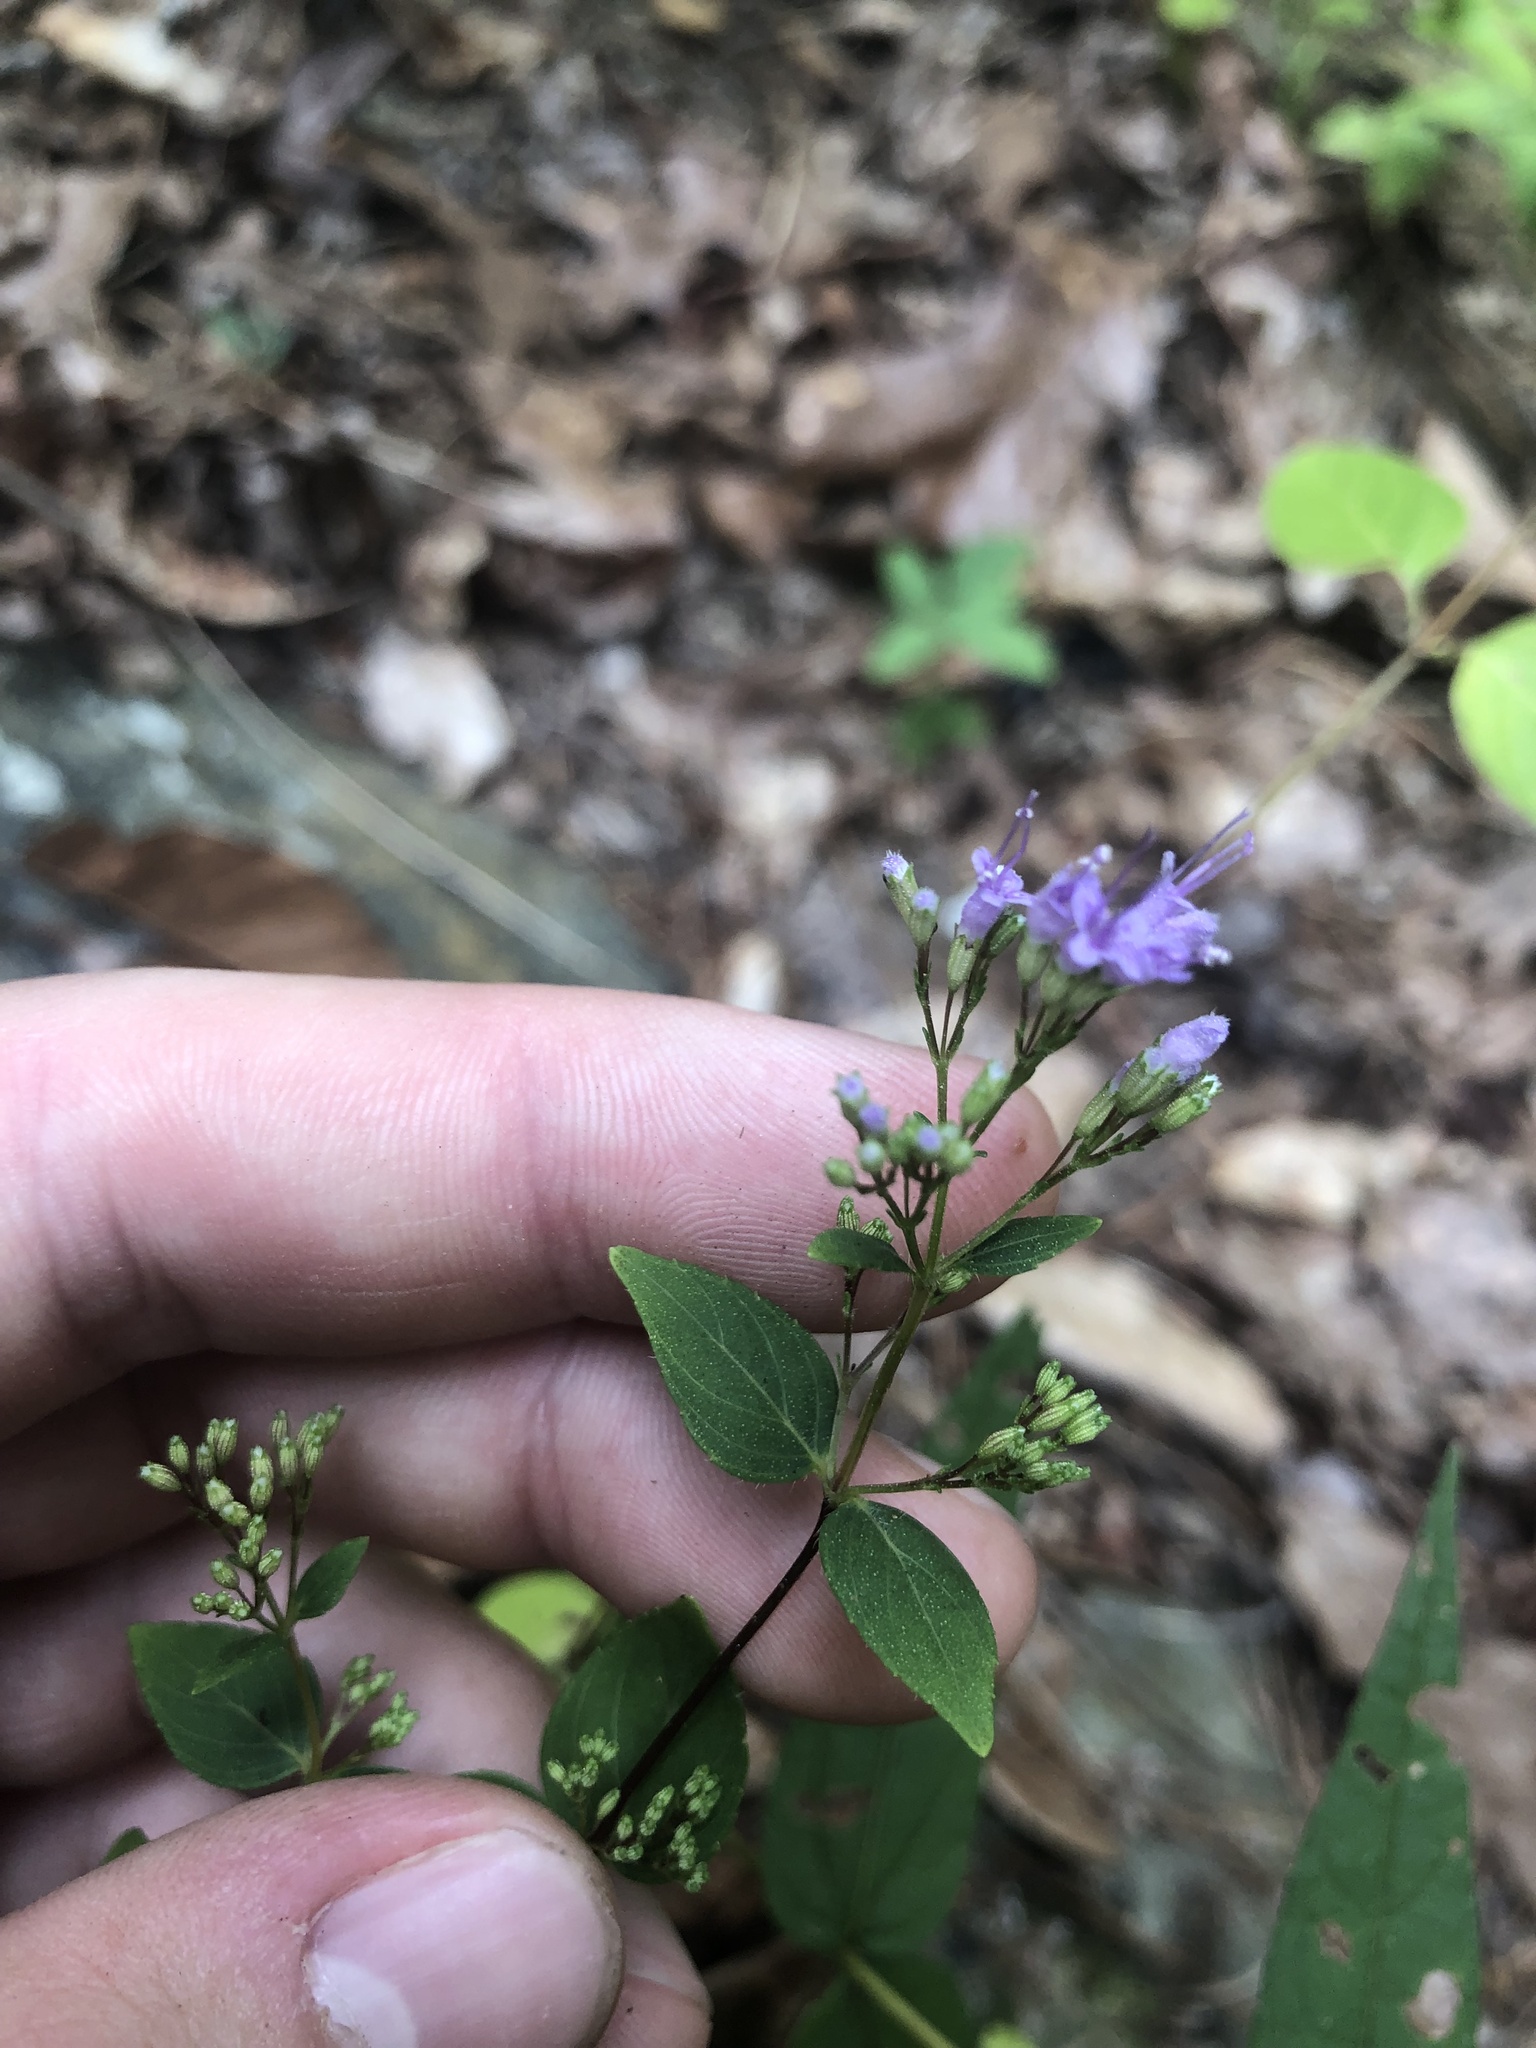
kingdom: Plantae
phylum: Tracheophyta
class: Magnoliopsida
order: Lamiales
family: Lamiaceae
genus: Cunila
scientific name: Cunila origanoides
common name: American dittany
